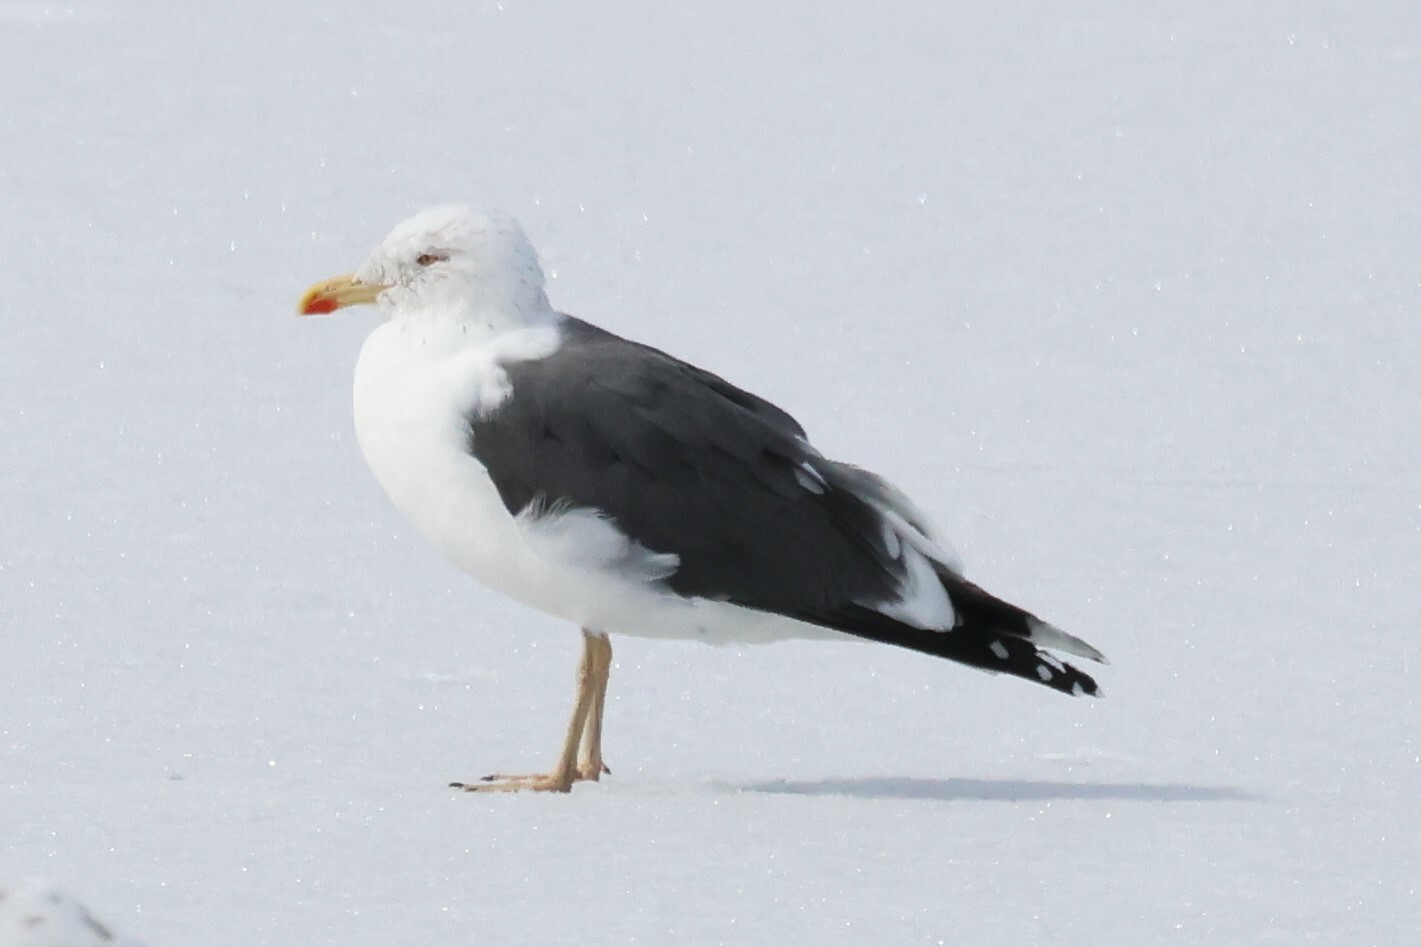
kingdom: Animalia
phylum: Chordata
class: Aves
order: Charadriiformes
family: Laridae
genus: Larus
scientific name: Larus fuscus
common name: Lesser black-backed gull
